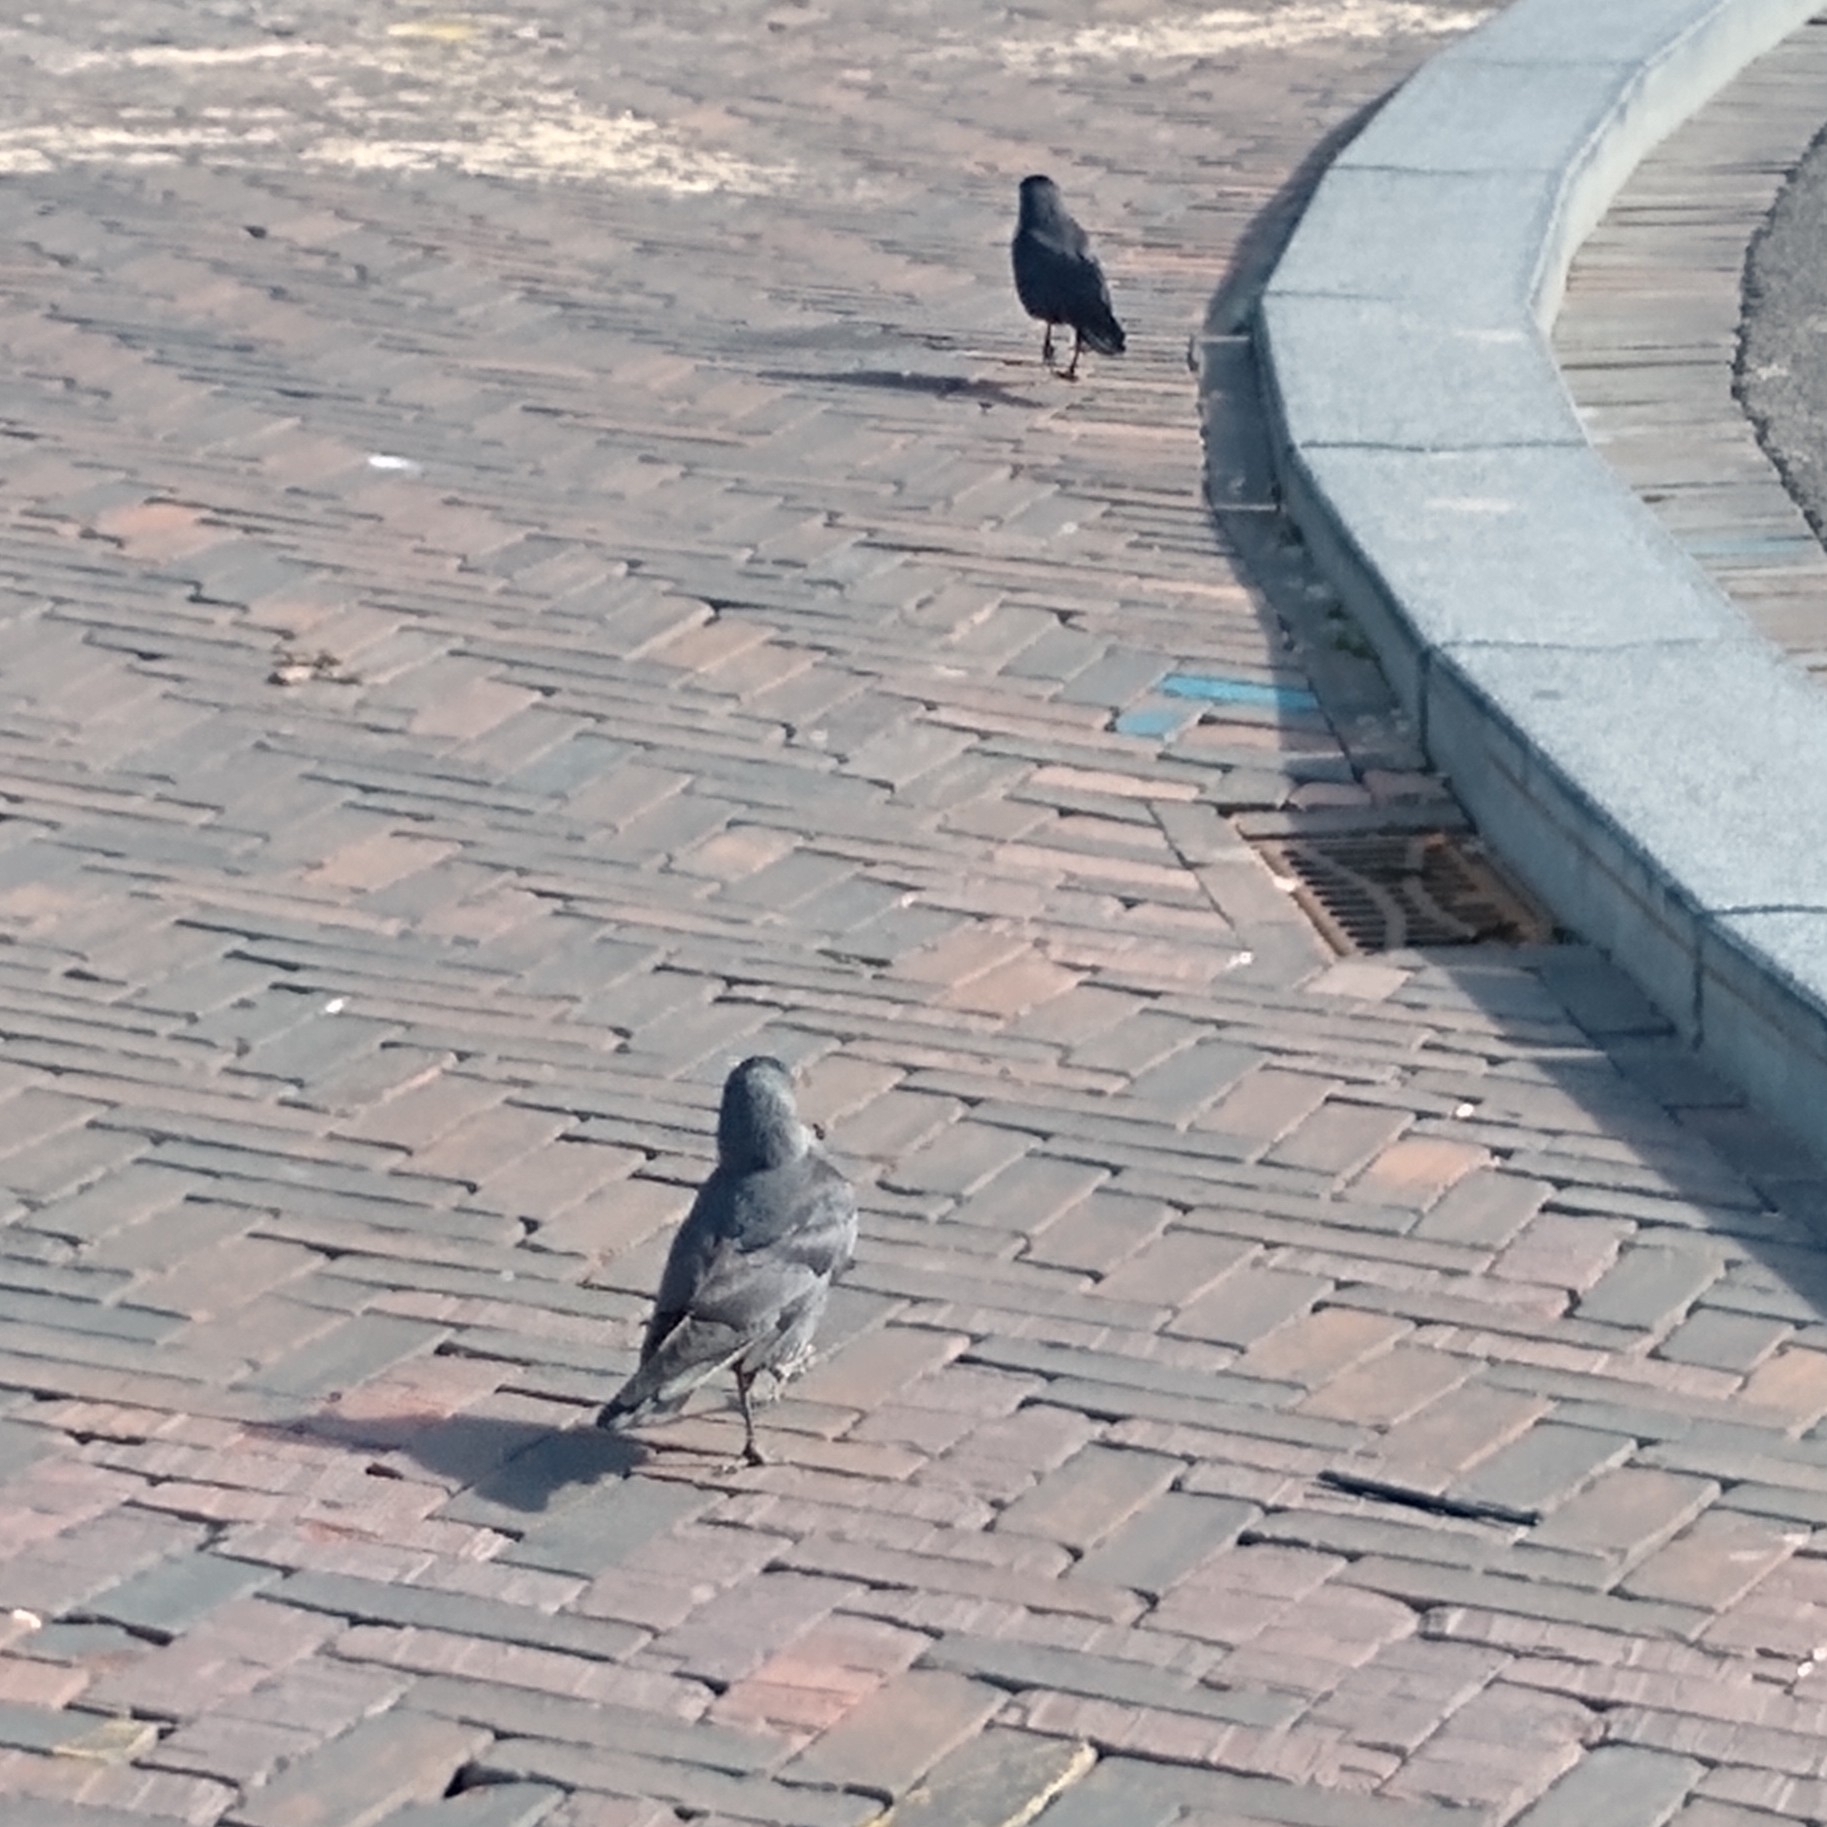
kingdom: Animalia
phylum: Chordata
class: Aves
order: Passeriformes
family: Corvidae
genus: Coloeus
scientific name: Coloeus monedula
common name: Western jackdaw
